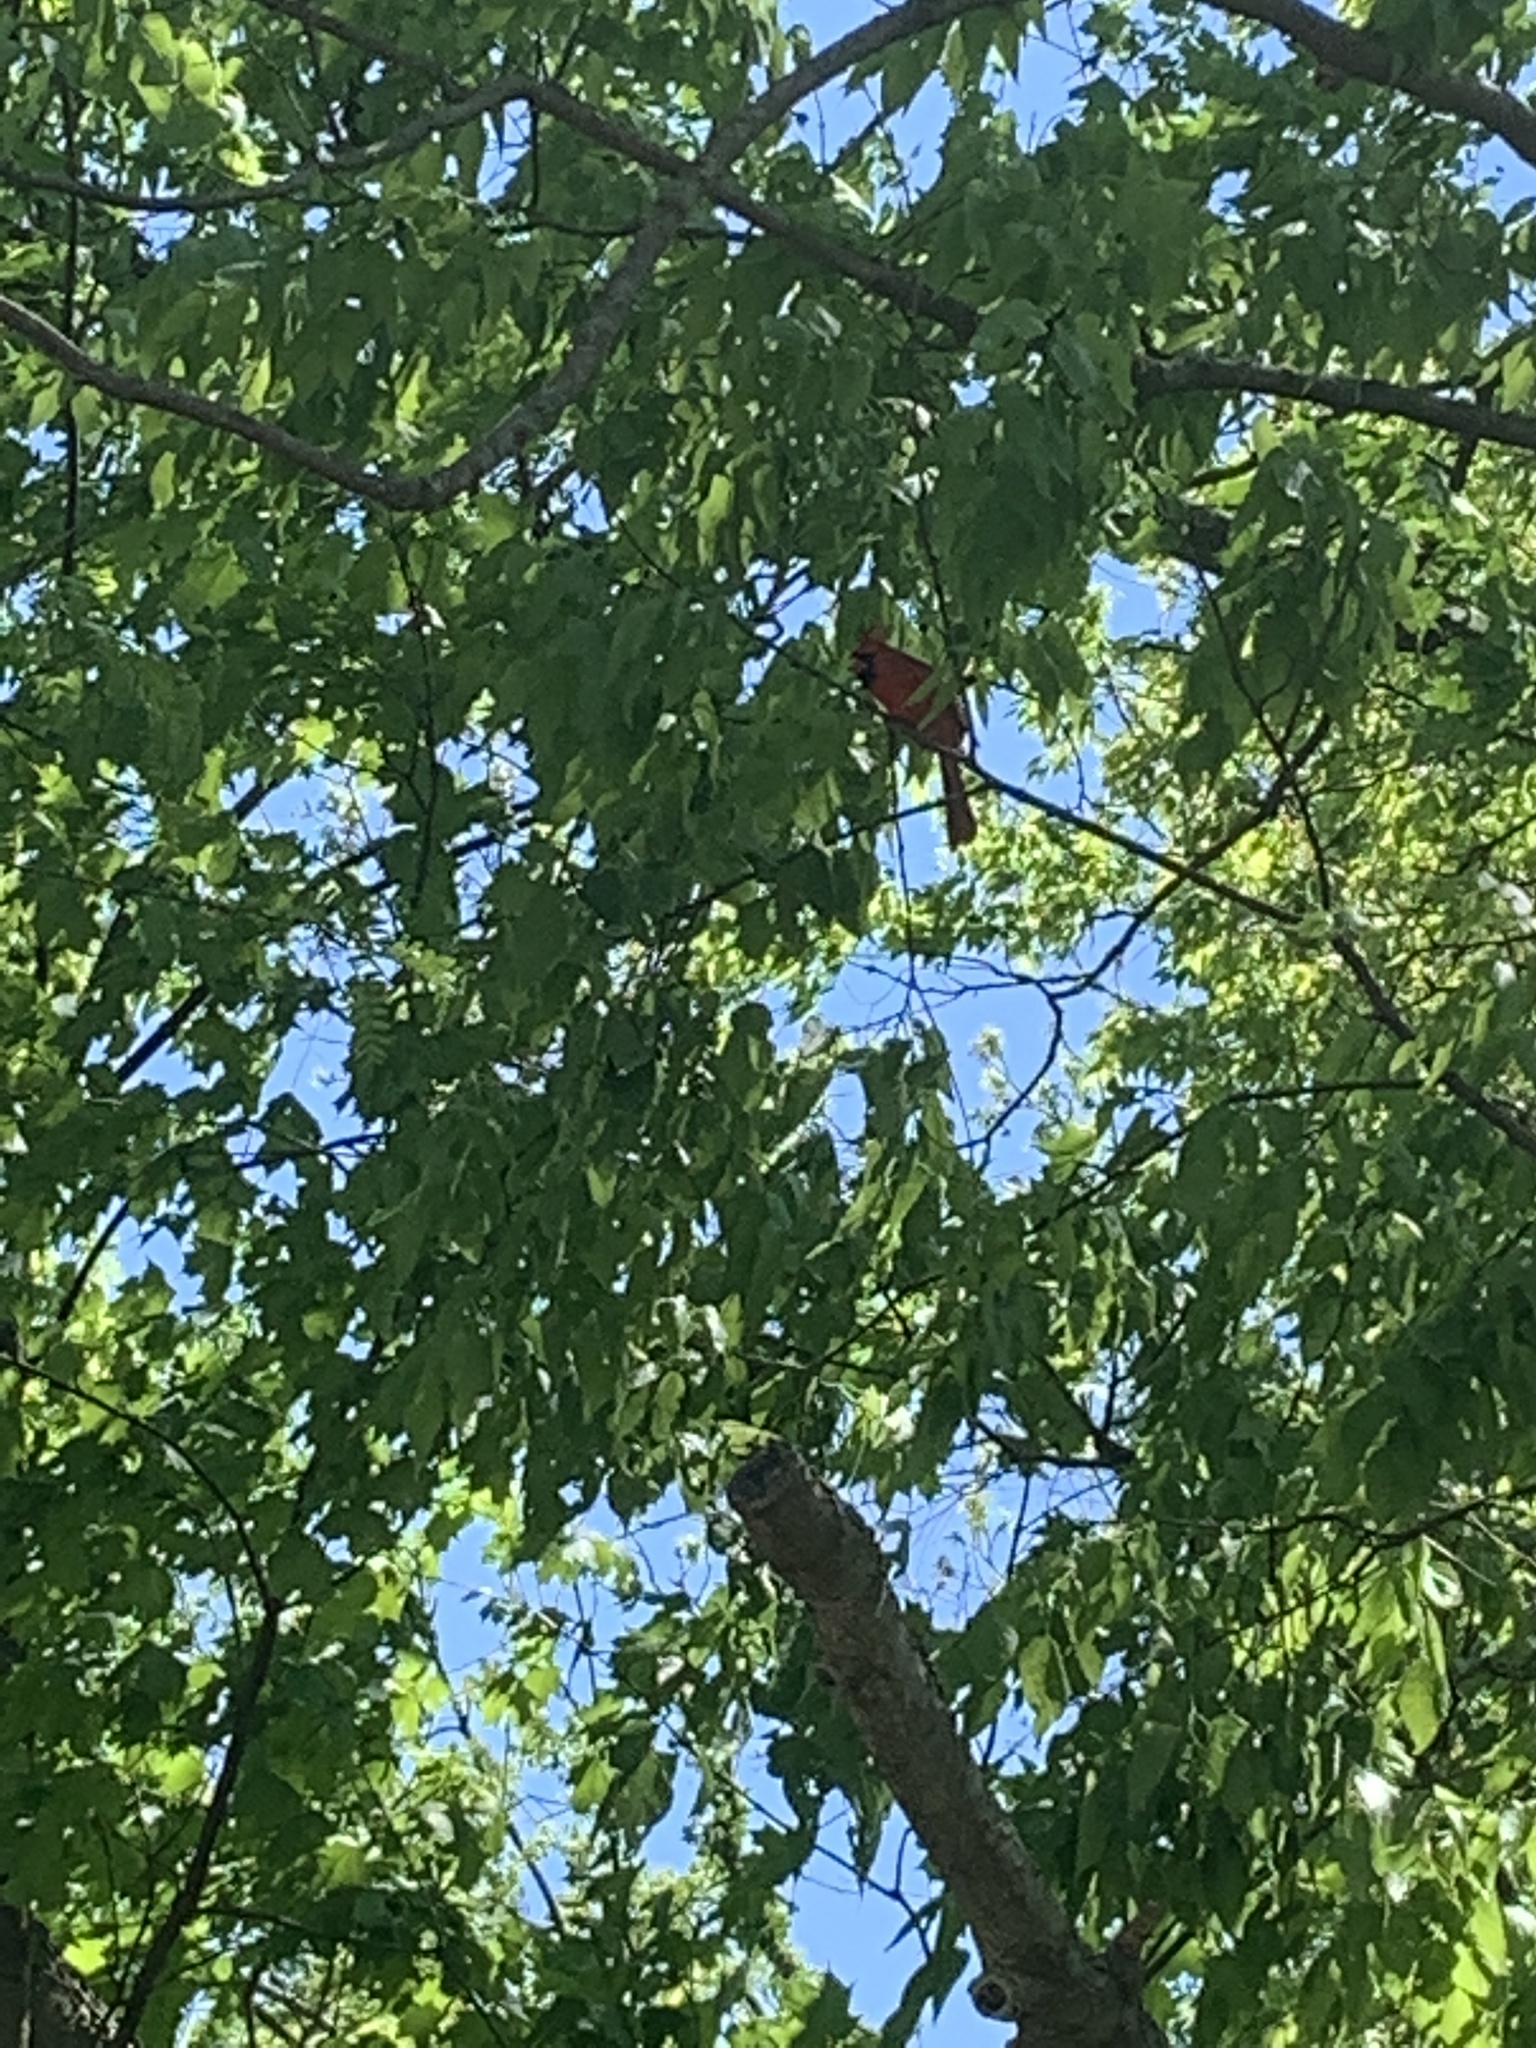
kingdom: Animalia
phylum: Chordata
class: Aves
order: Passeriformes
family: Cardinalidae
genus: Cardinalis
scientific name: Cardinalis cardinalis
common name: Northern cardinal
